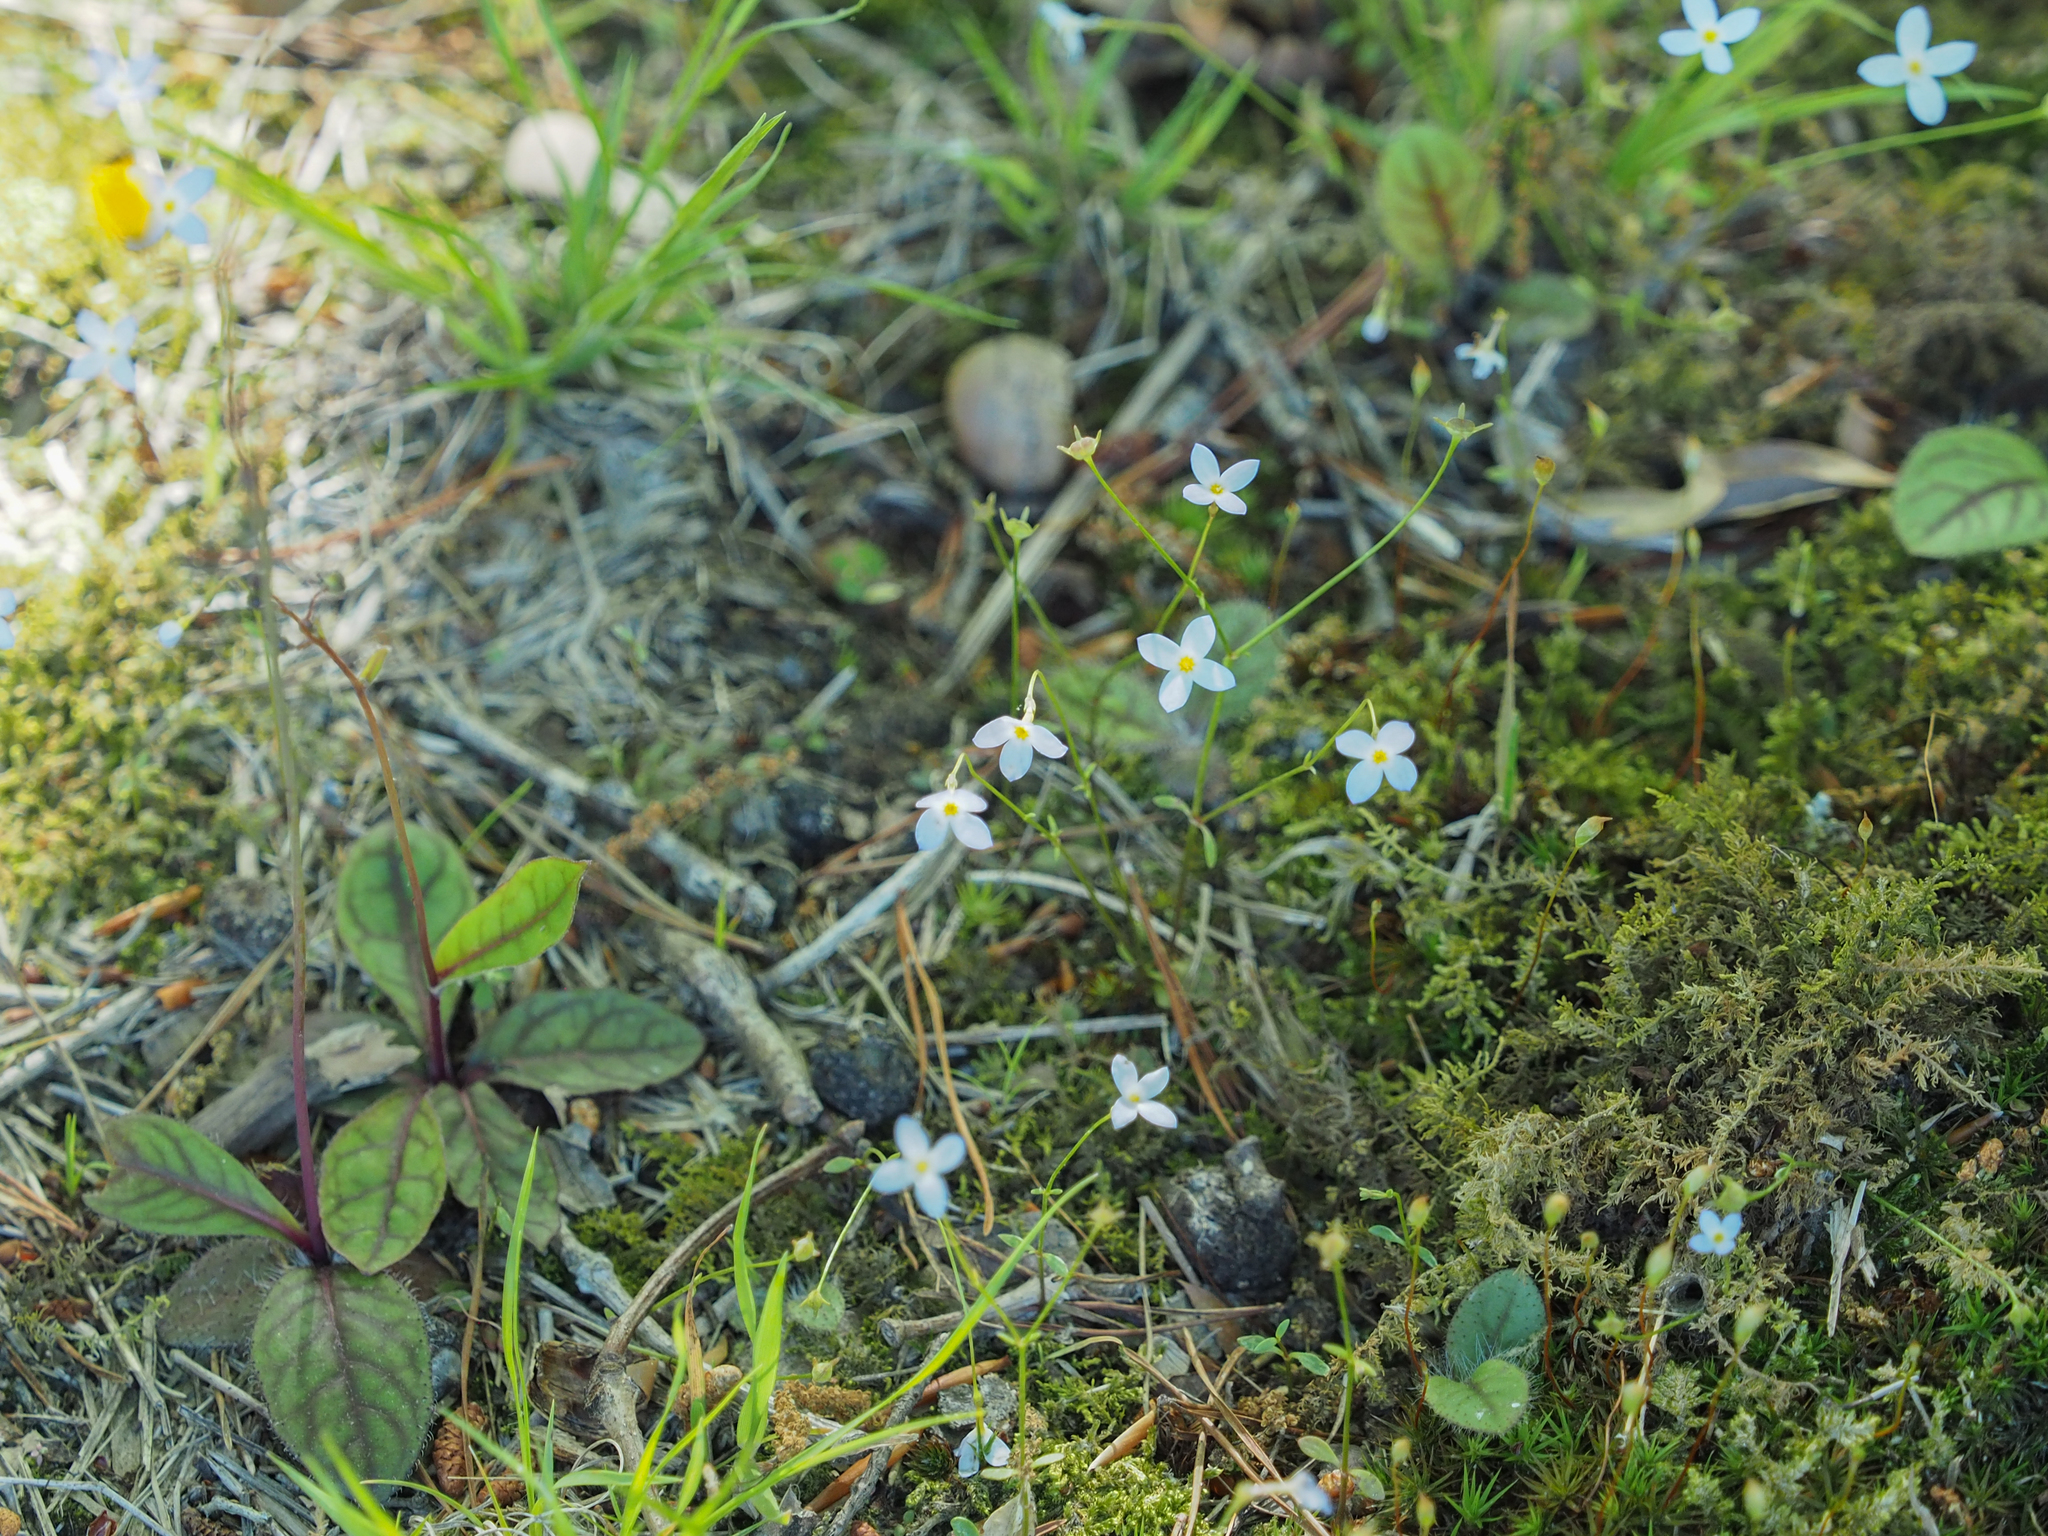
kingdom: Plantae
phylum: Tracheophyta
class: Magnoliopsida
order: Gentianales
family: Rubiaceae
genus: Houstonia
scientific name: Houstonia caerulea
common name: Bluets
